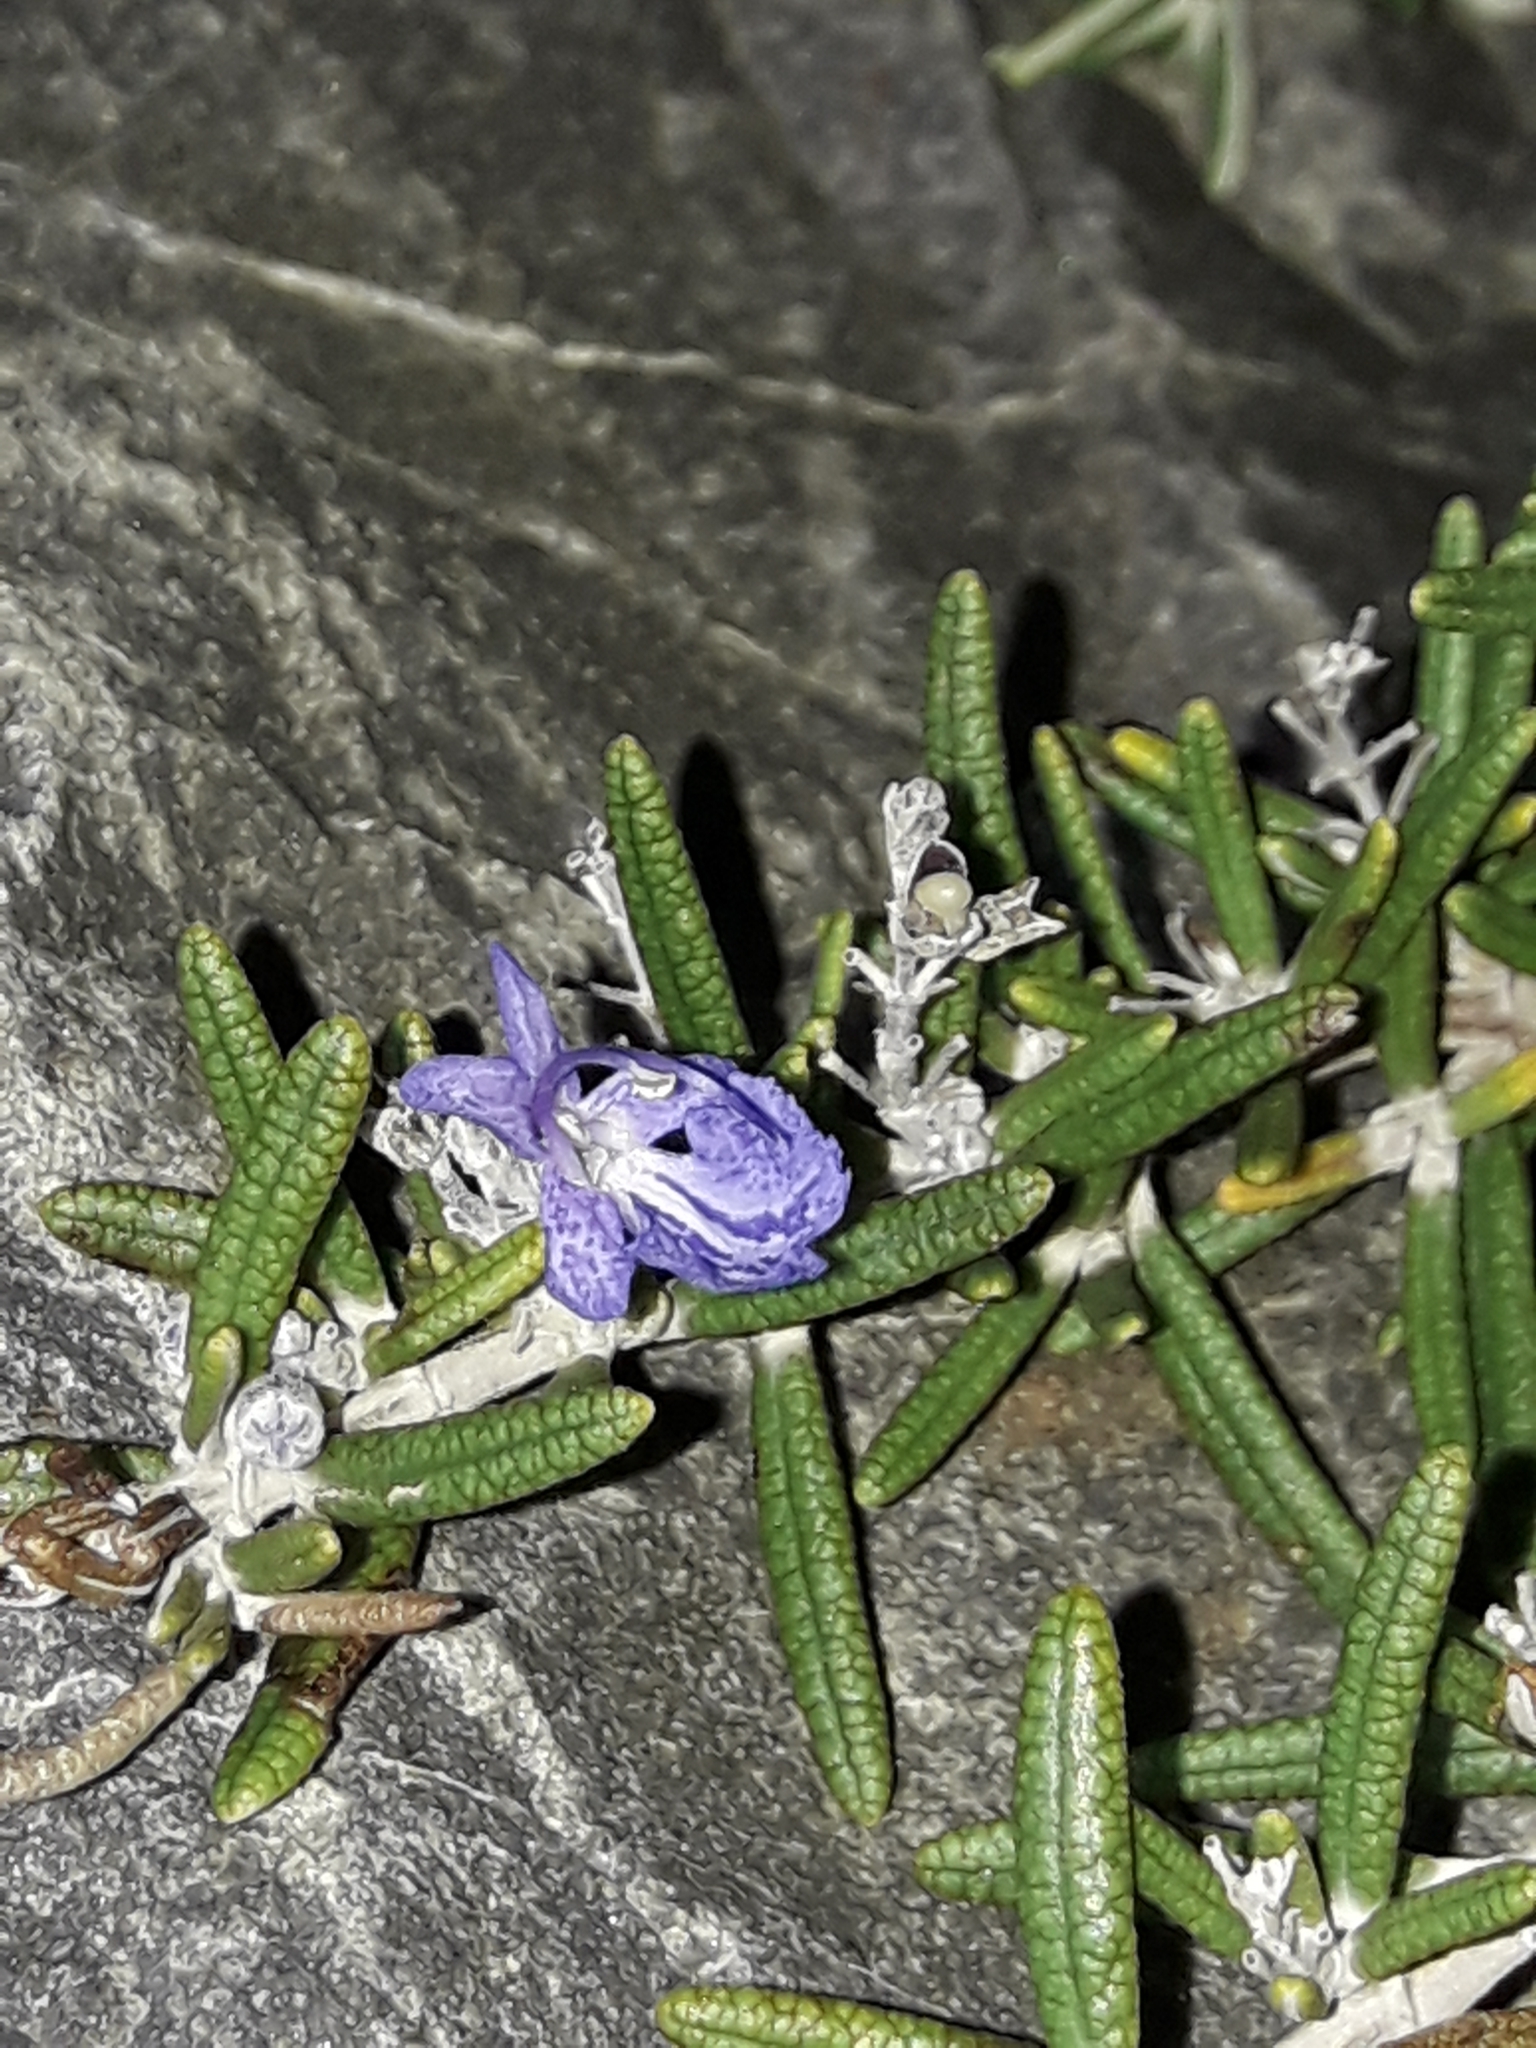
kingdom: Plantae
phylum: Tracheophyta
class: Magnoliopsida
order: Lamiales
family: Lamiaceae
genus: Salvia
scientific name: Salvia rosmarinus
